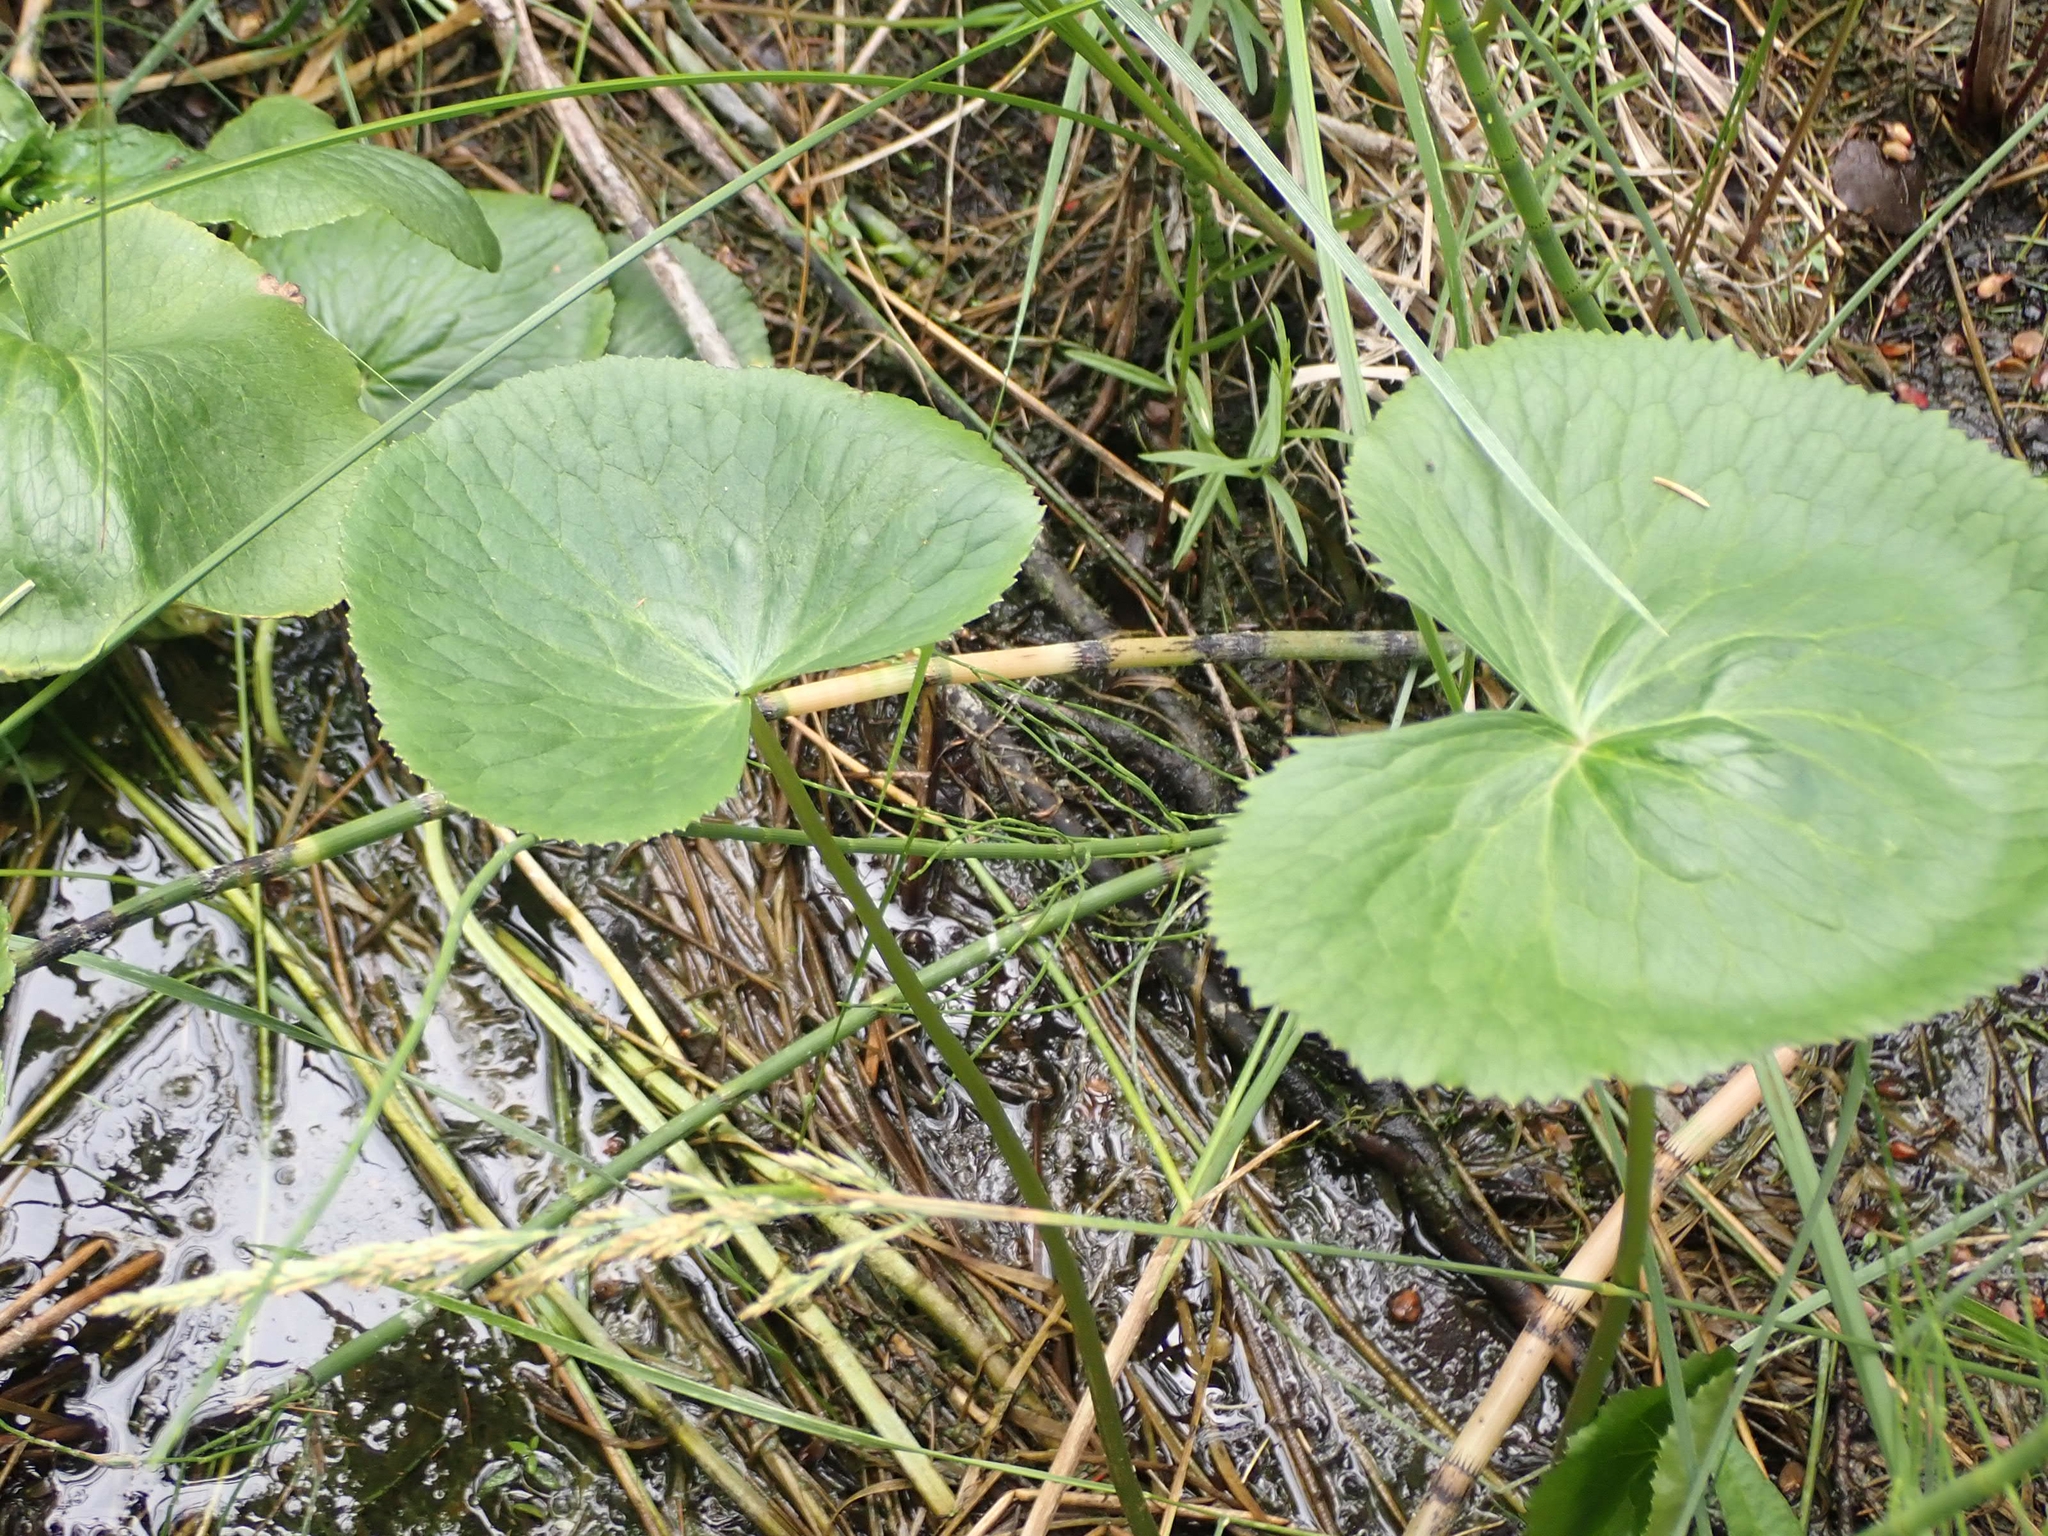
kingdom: Plantae
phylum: Tracheophyta
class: Magnoliopsida
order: Ranunculales
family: Ranunculaceae
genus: Caltha
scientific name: Caltha palustris
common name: Marsh marigold
